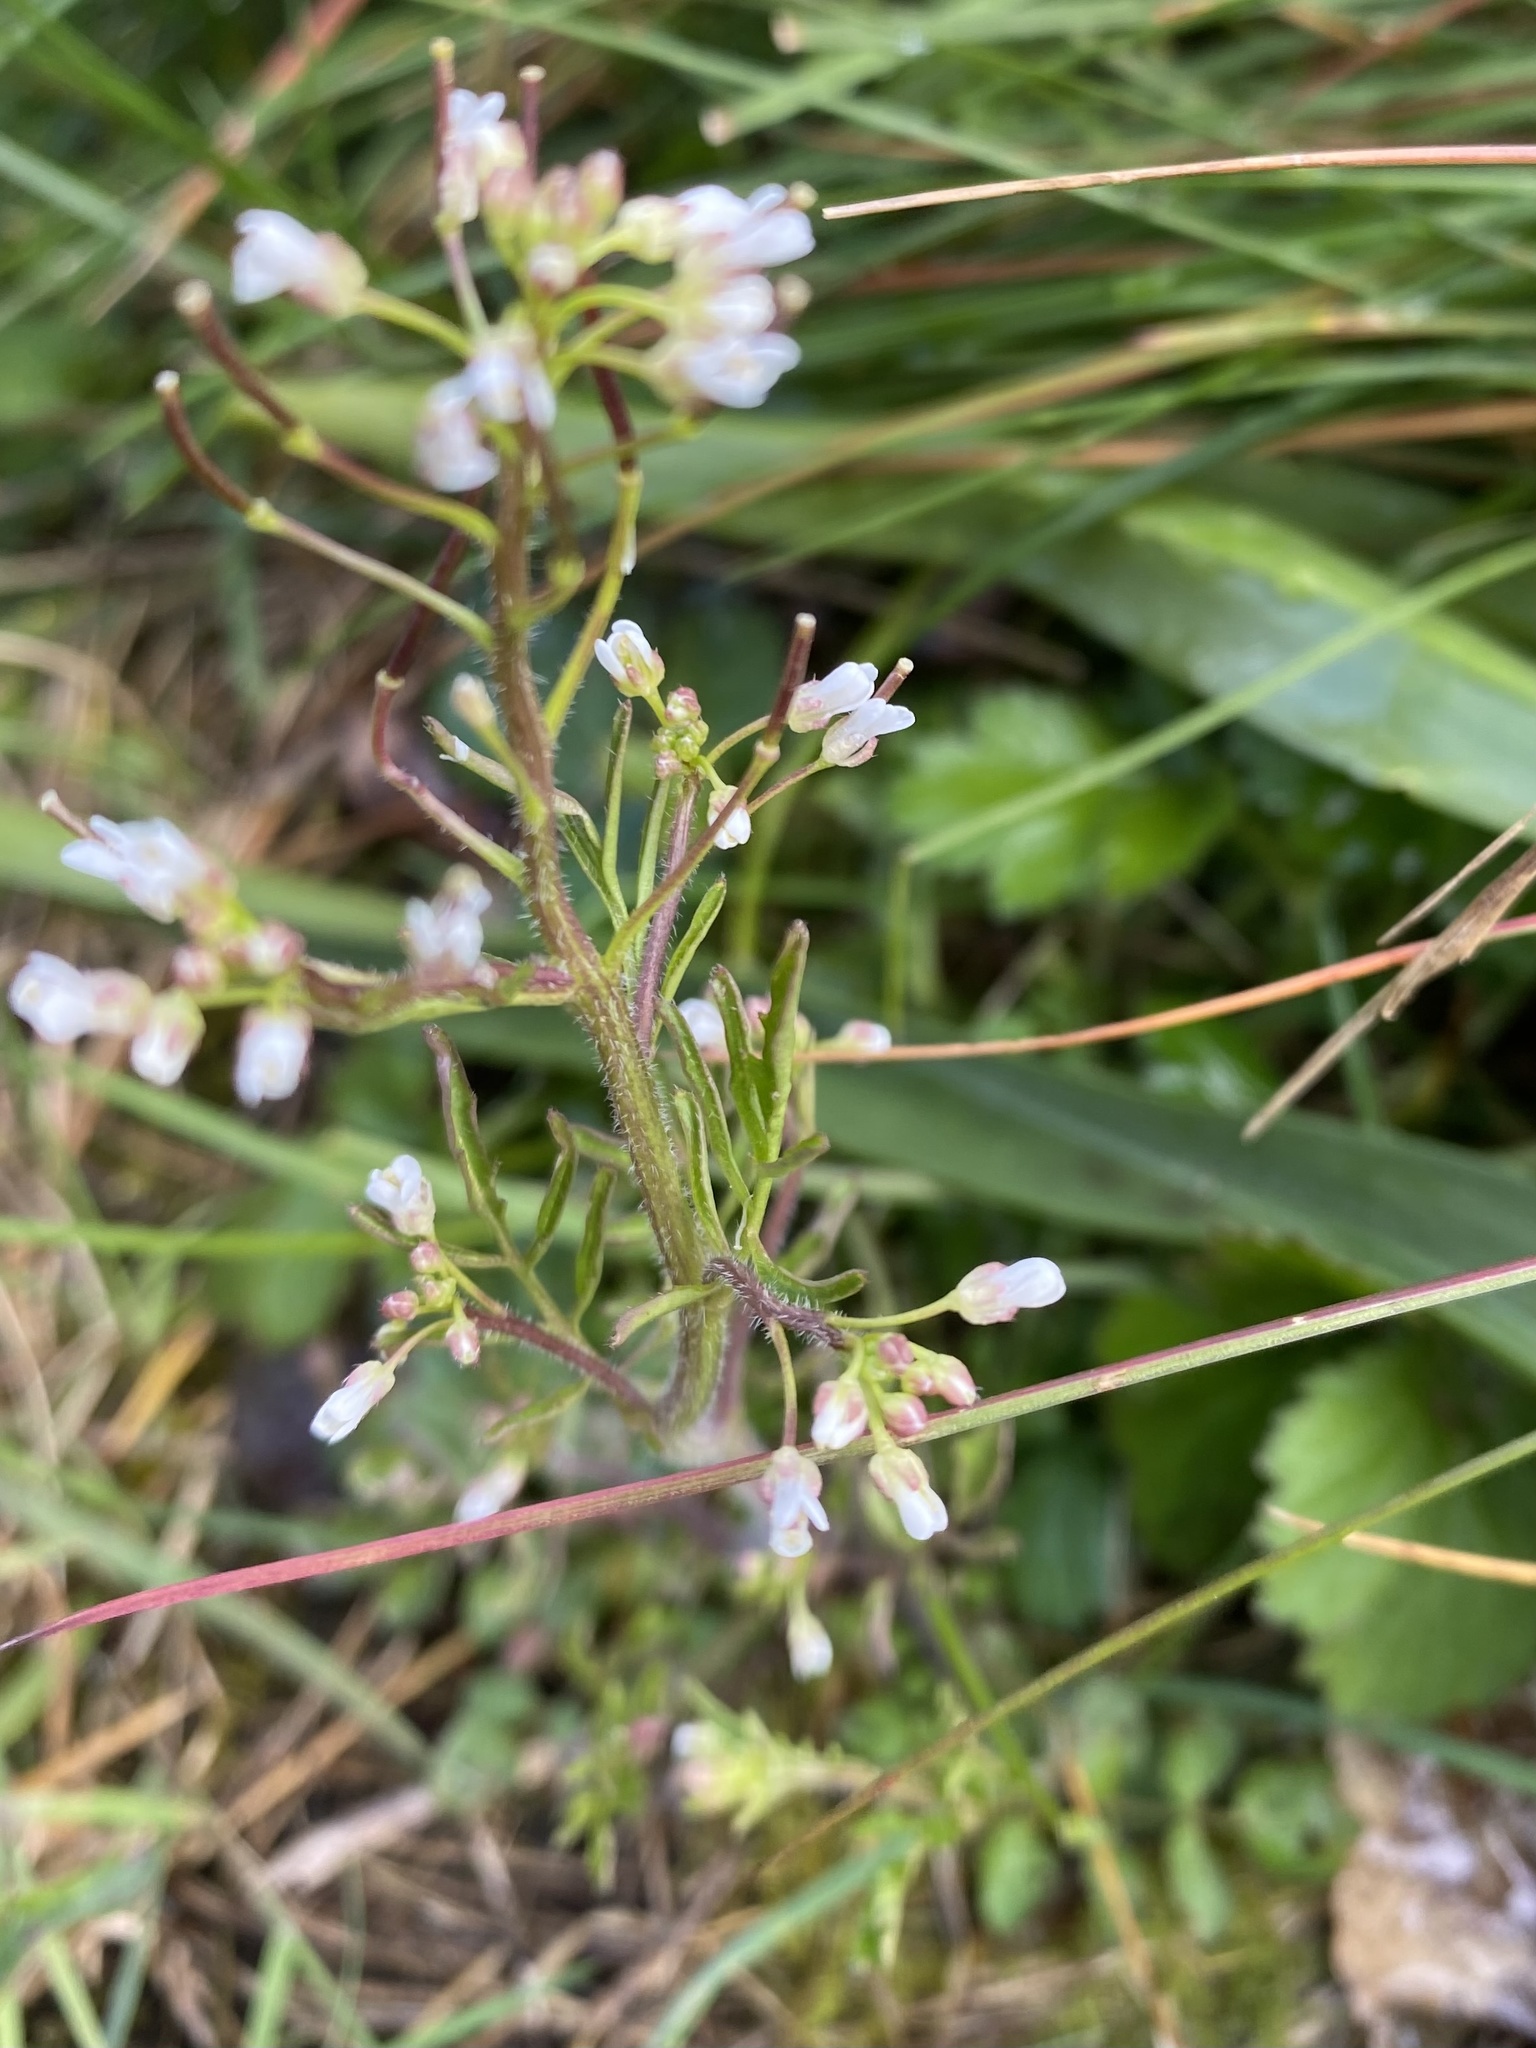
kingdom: Plantae
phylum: Tracheophyta
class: Magnoliopsida
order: Brassicales
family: Brassicaceae
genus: Cardamine
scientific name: Cardamine hirsuta
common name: Hairy bittercress
